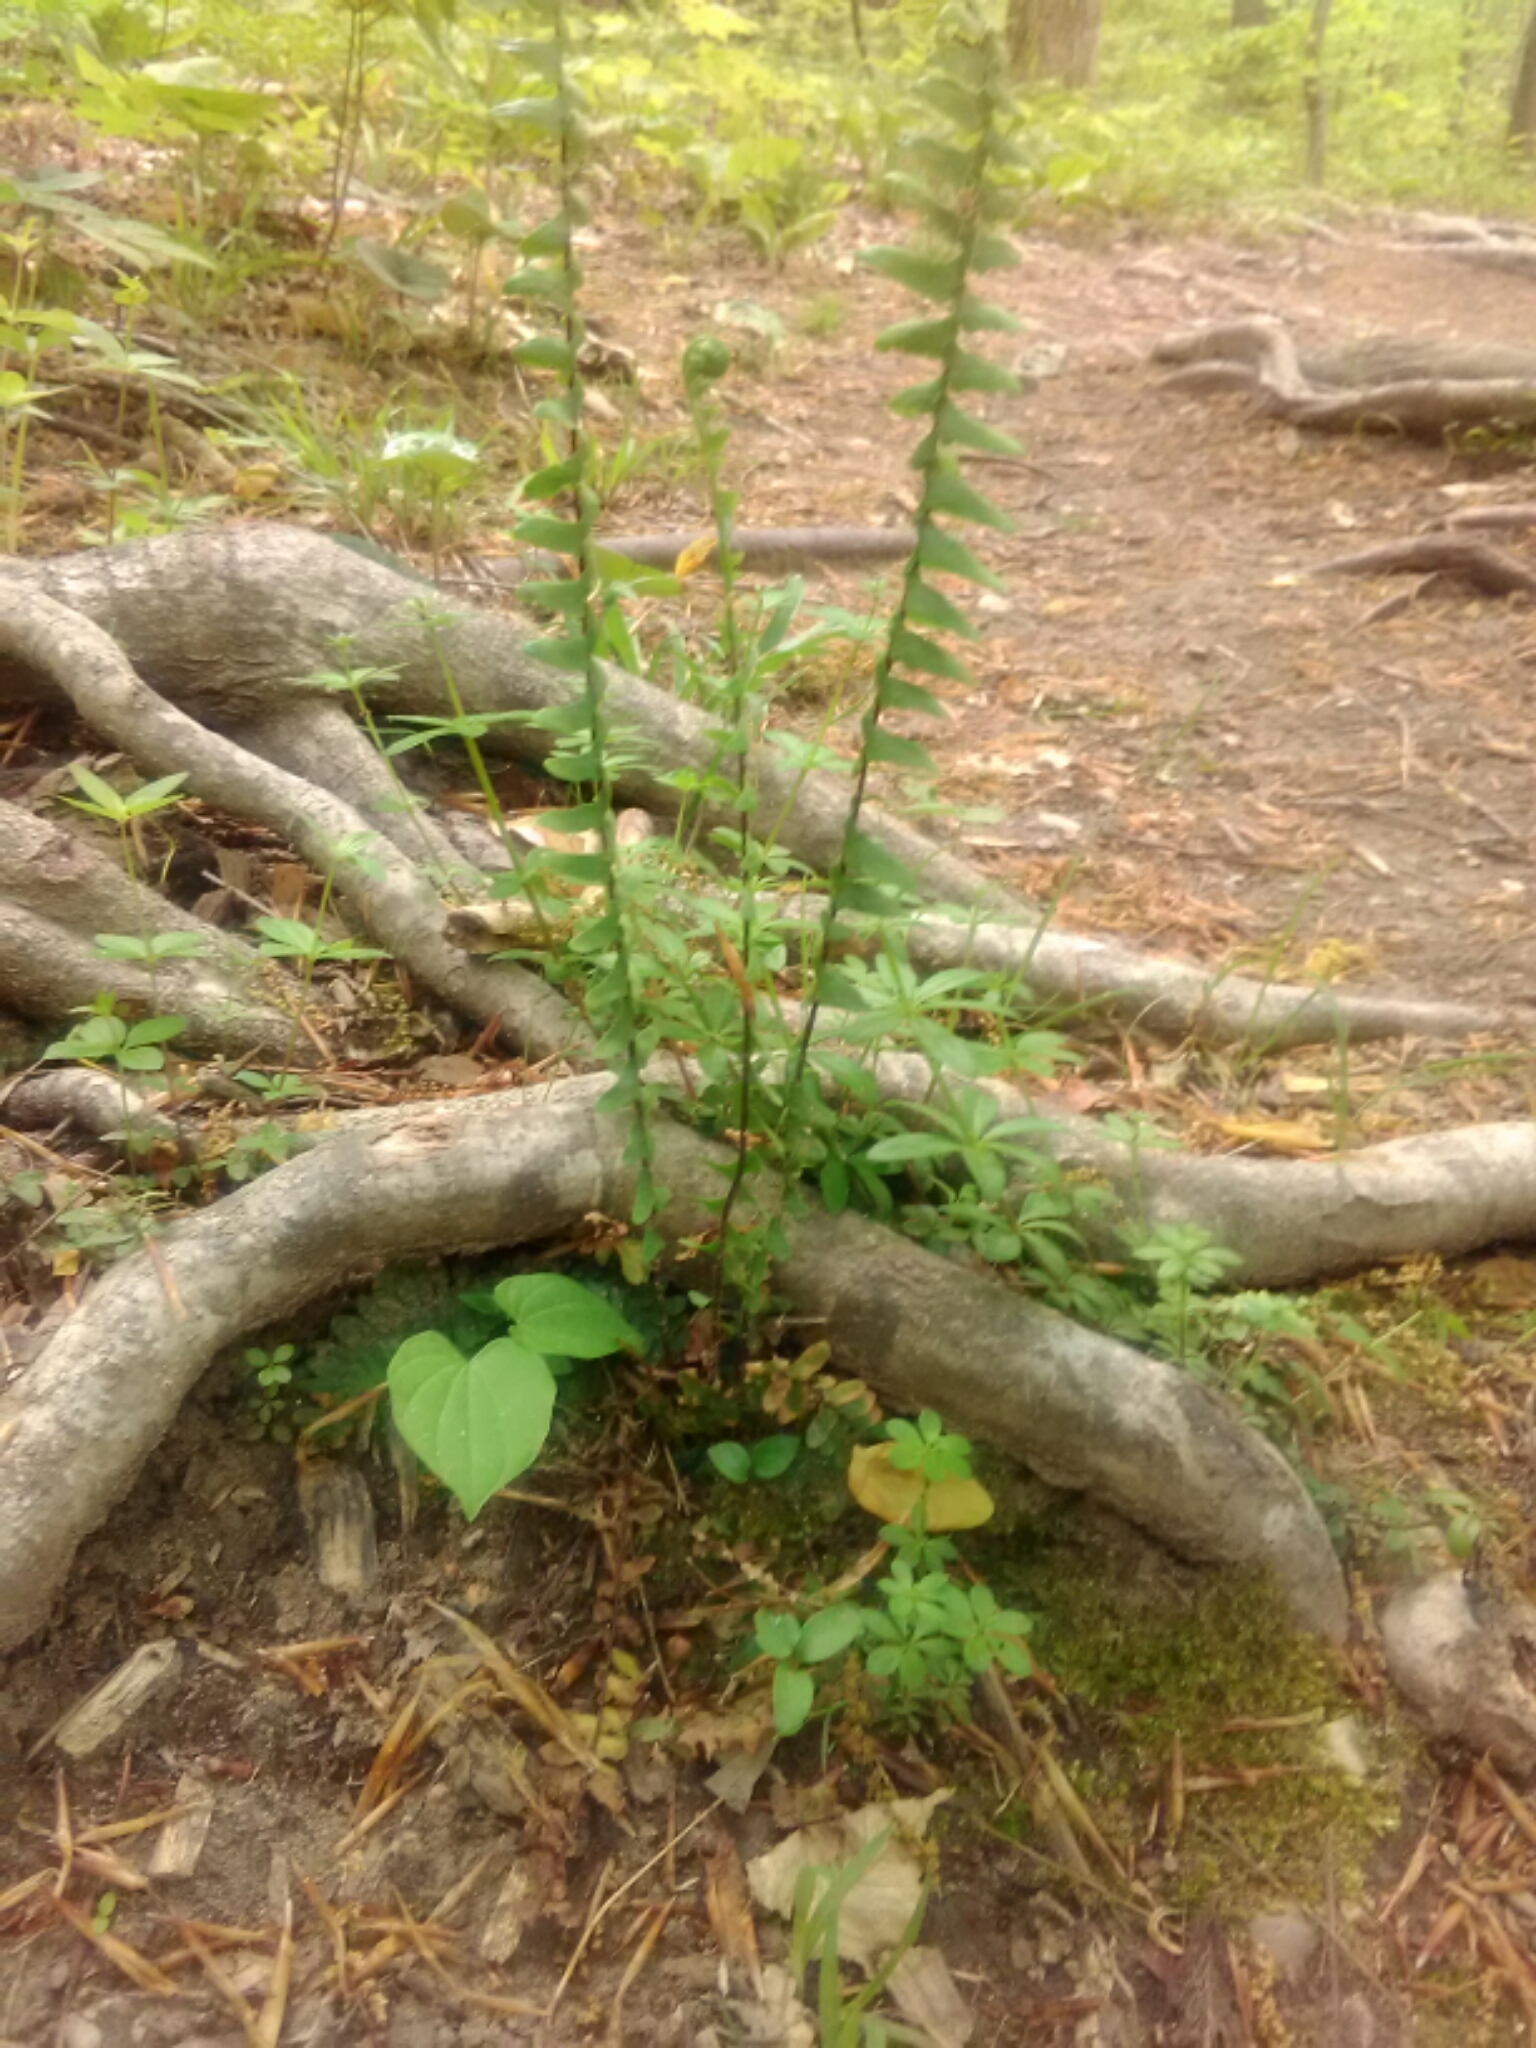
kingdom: Plantae
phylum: Tracheophyta
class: Polypodiopsida
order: Polypodiales
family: Aspleniaceae
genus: Asplenium
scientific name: Asplenium platyneuron
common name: Ebony spleenwort
